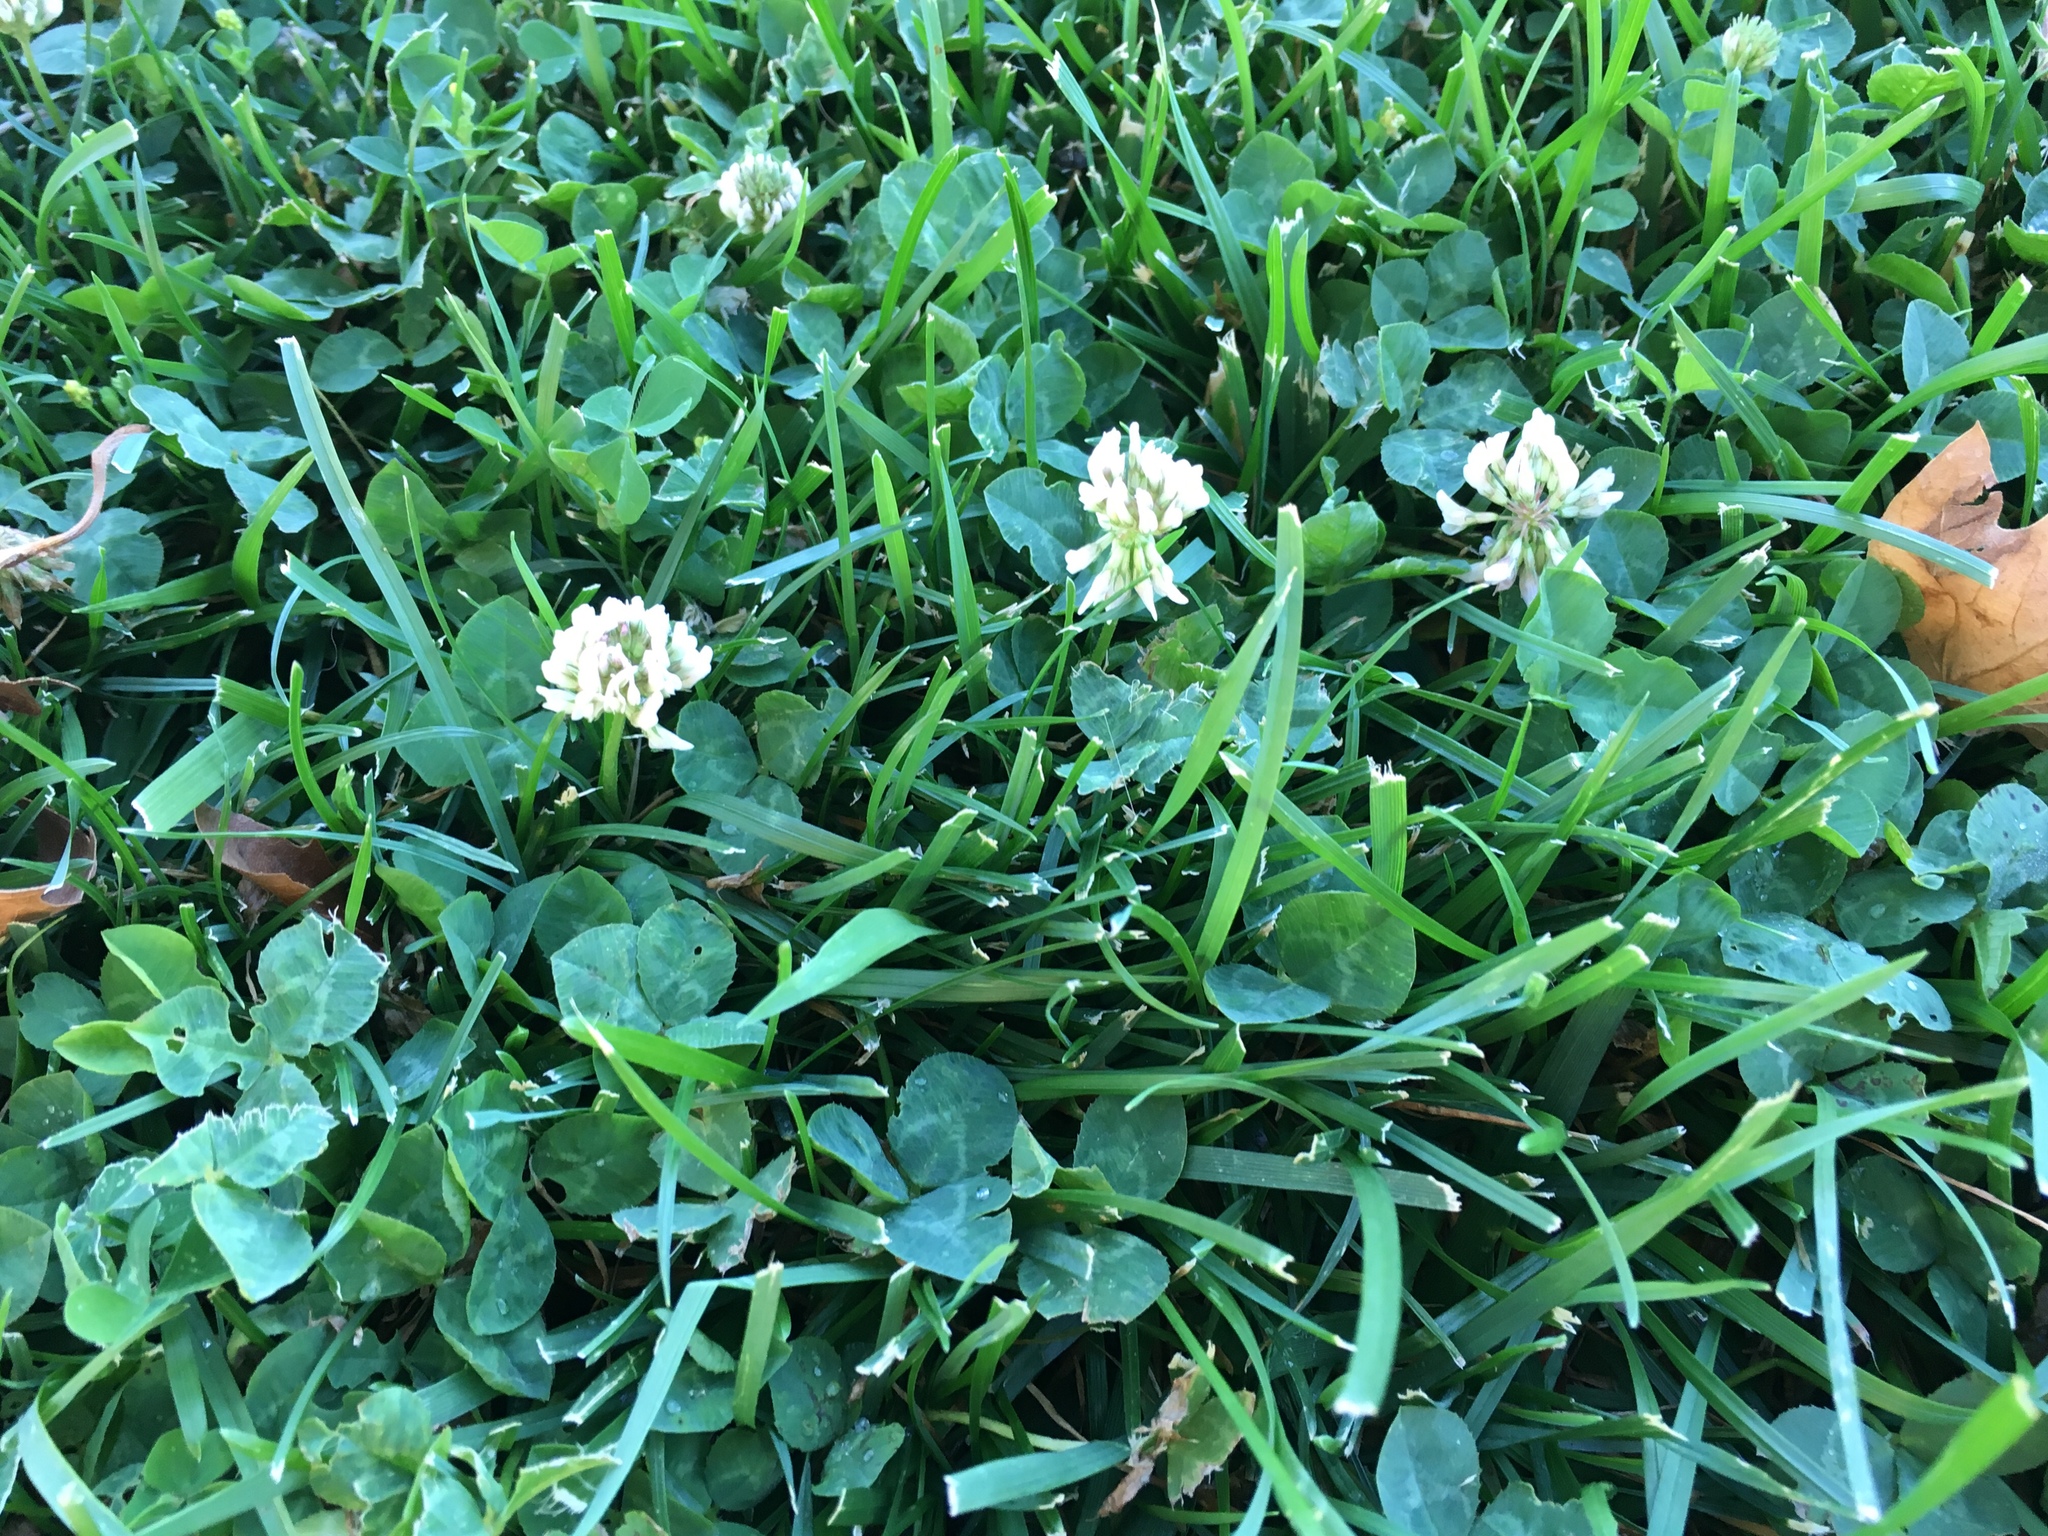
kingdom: Plantae
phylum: Tracheophyta
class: Magnoliopsida
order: Fabales
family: Fabaceae
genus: Trifolium
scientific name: Trifolium repens
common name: White clover
